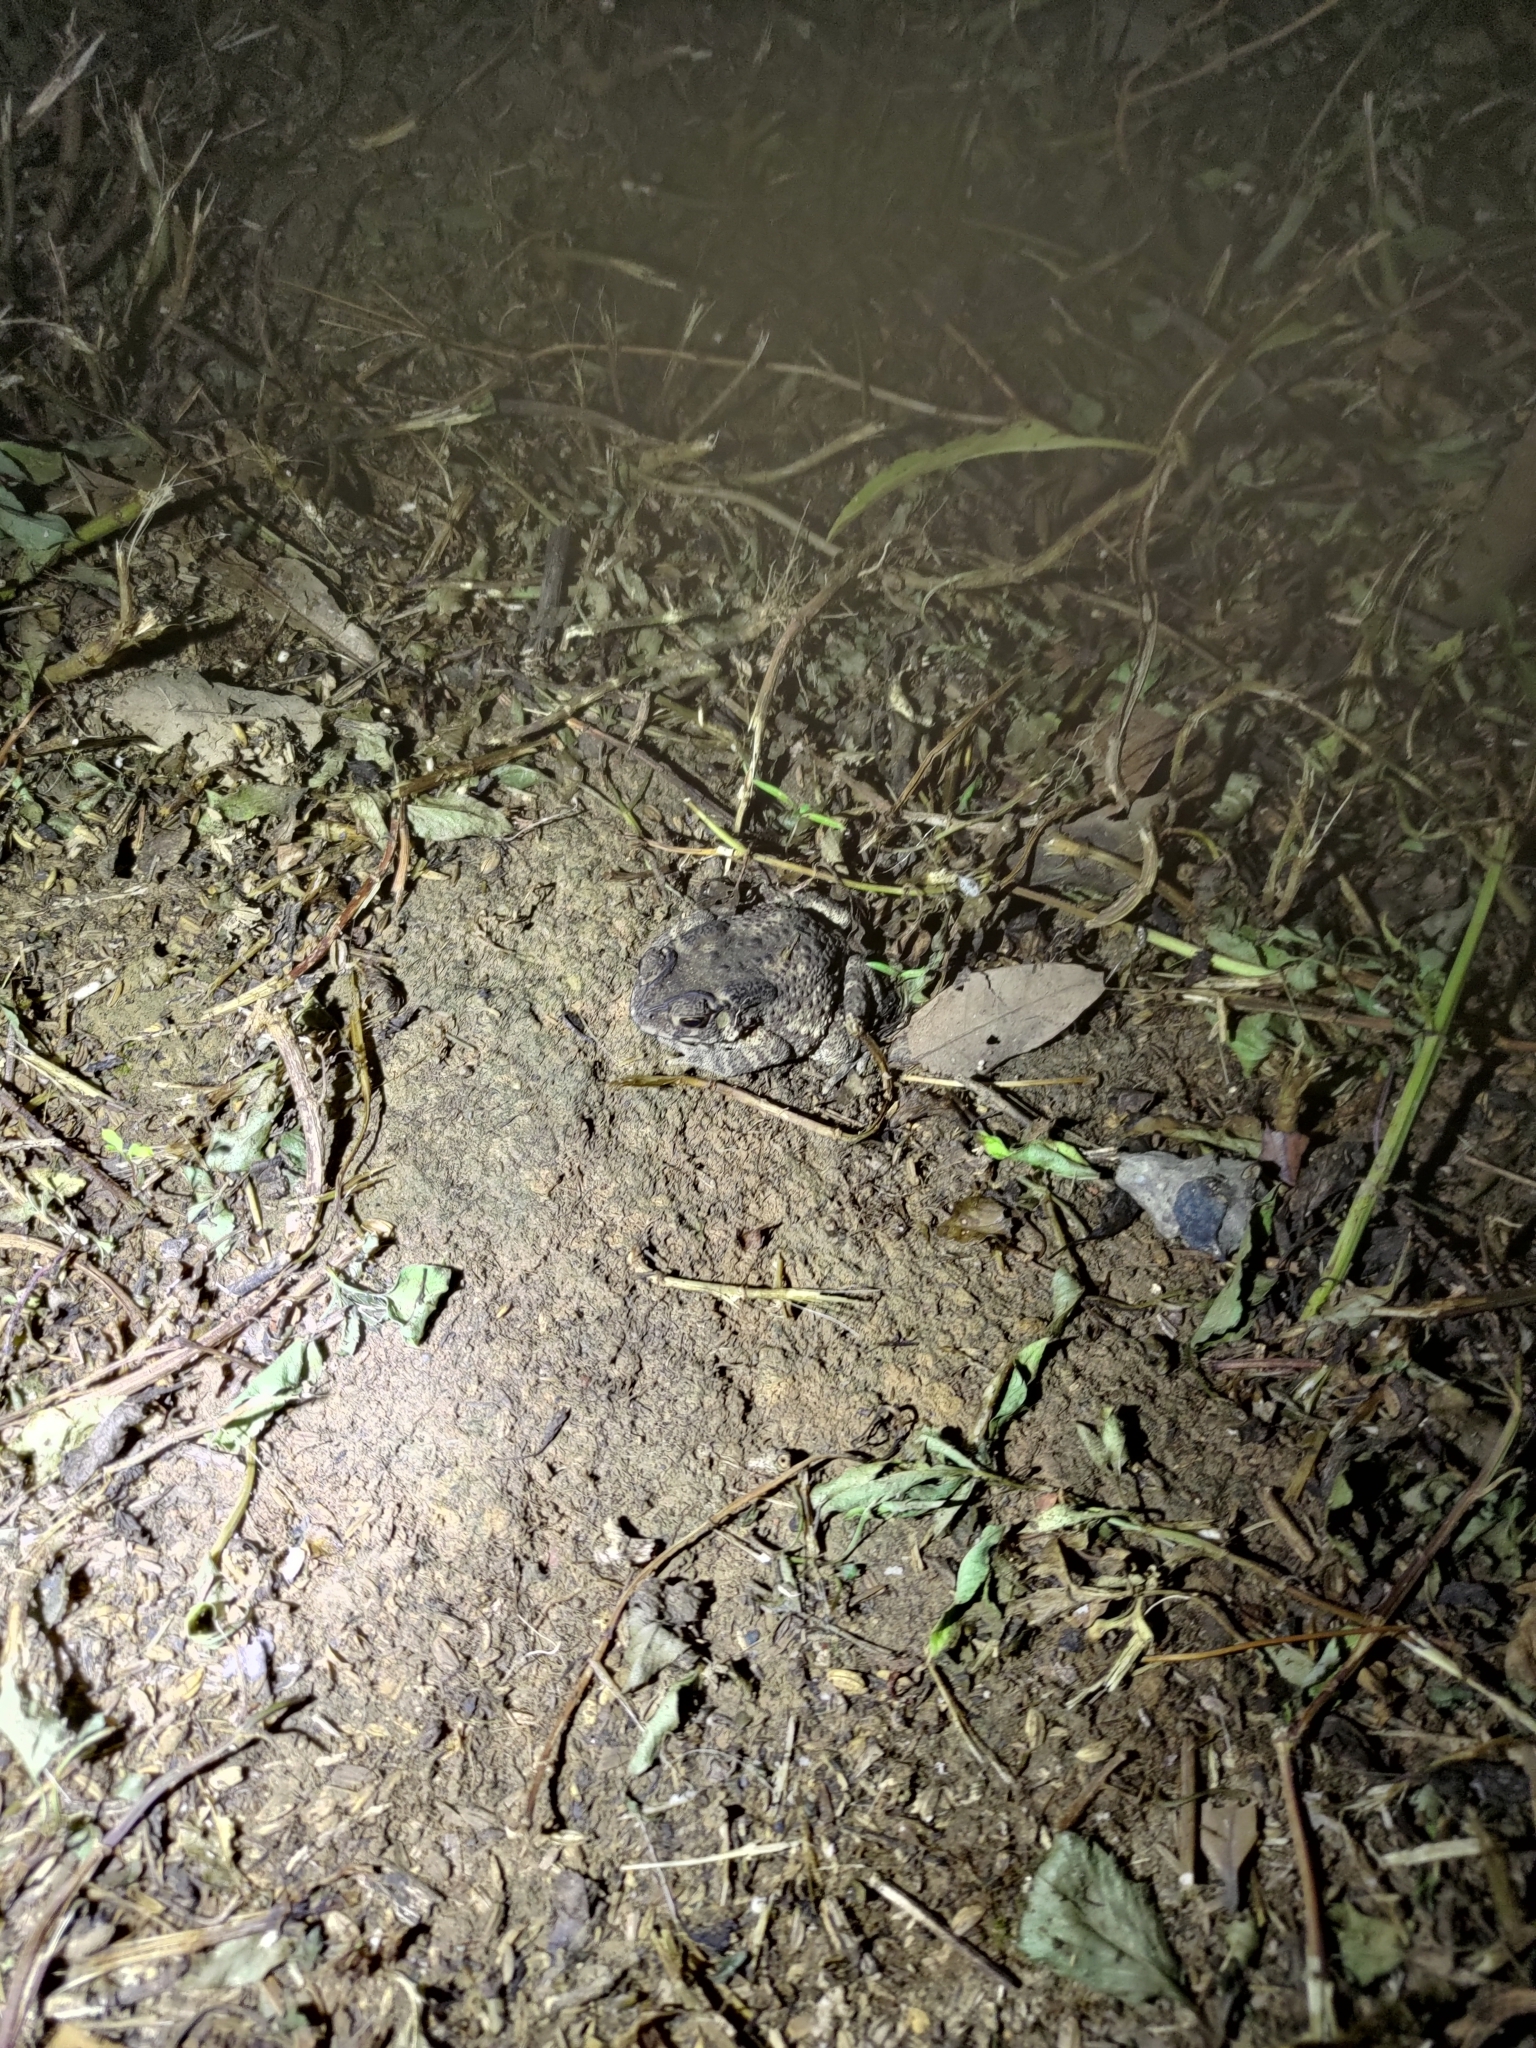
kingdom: Animalia
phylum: Chordata
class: Amphibia
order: Anura
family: Bufonidae
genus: Duttaphrynus
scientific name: Duttaphrynus melanostictus
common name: Common sunda toad
